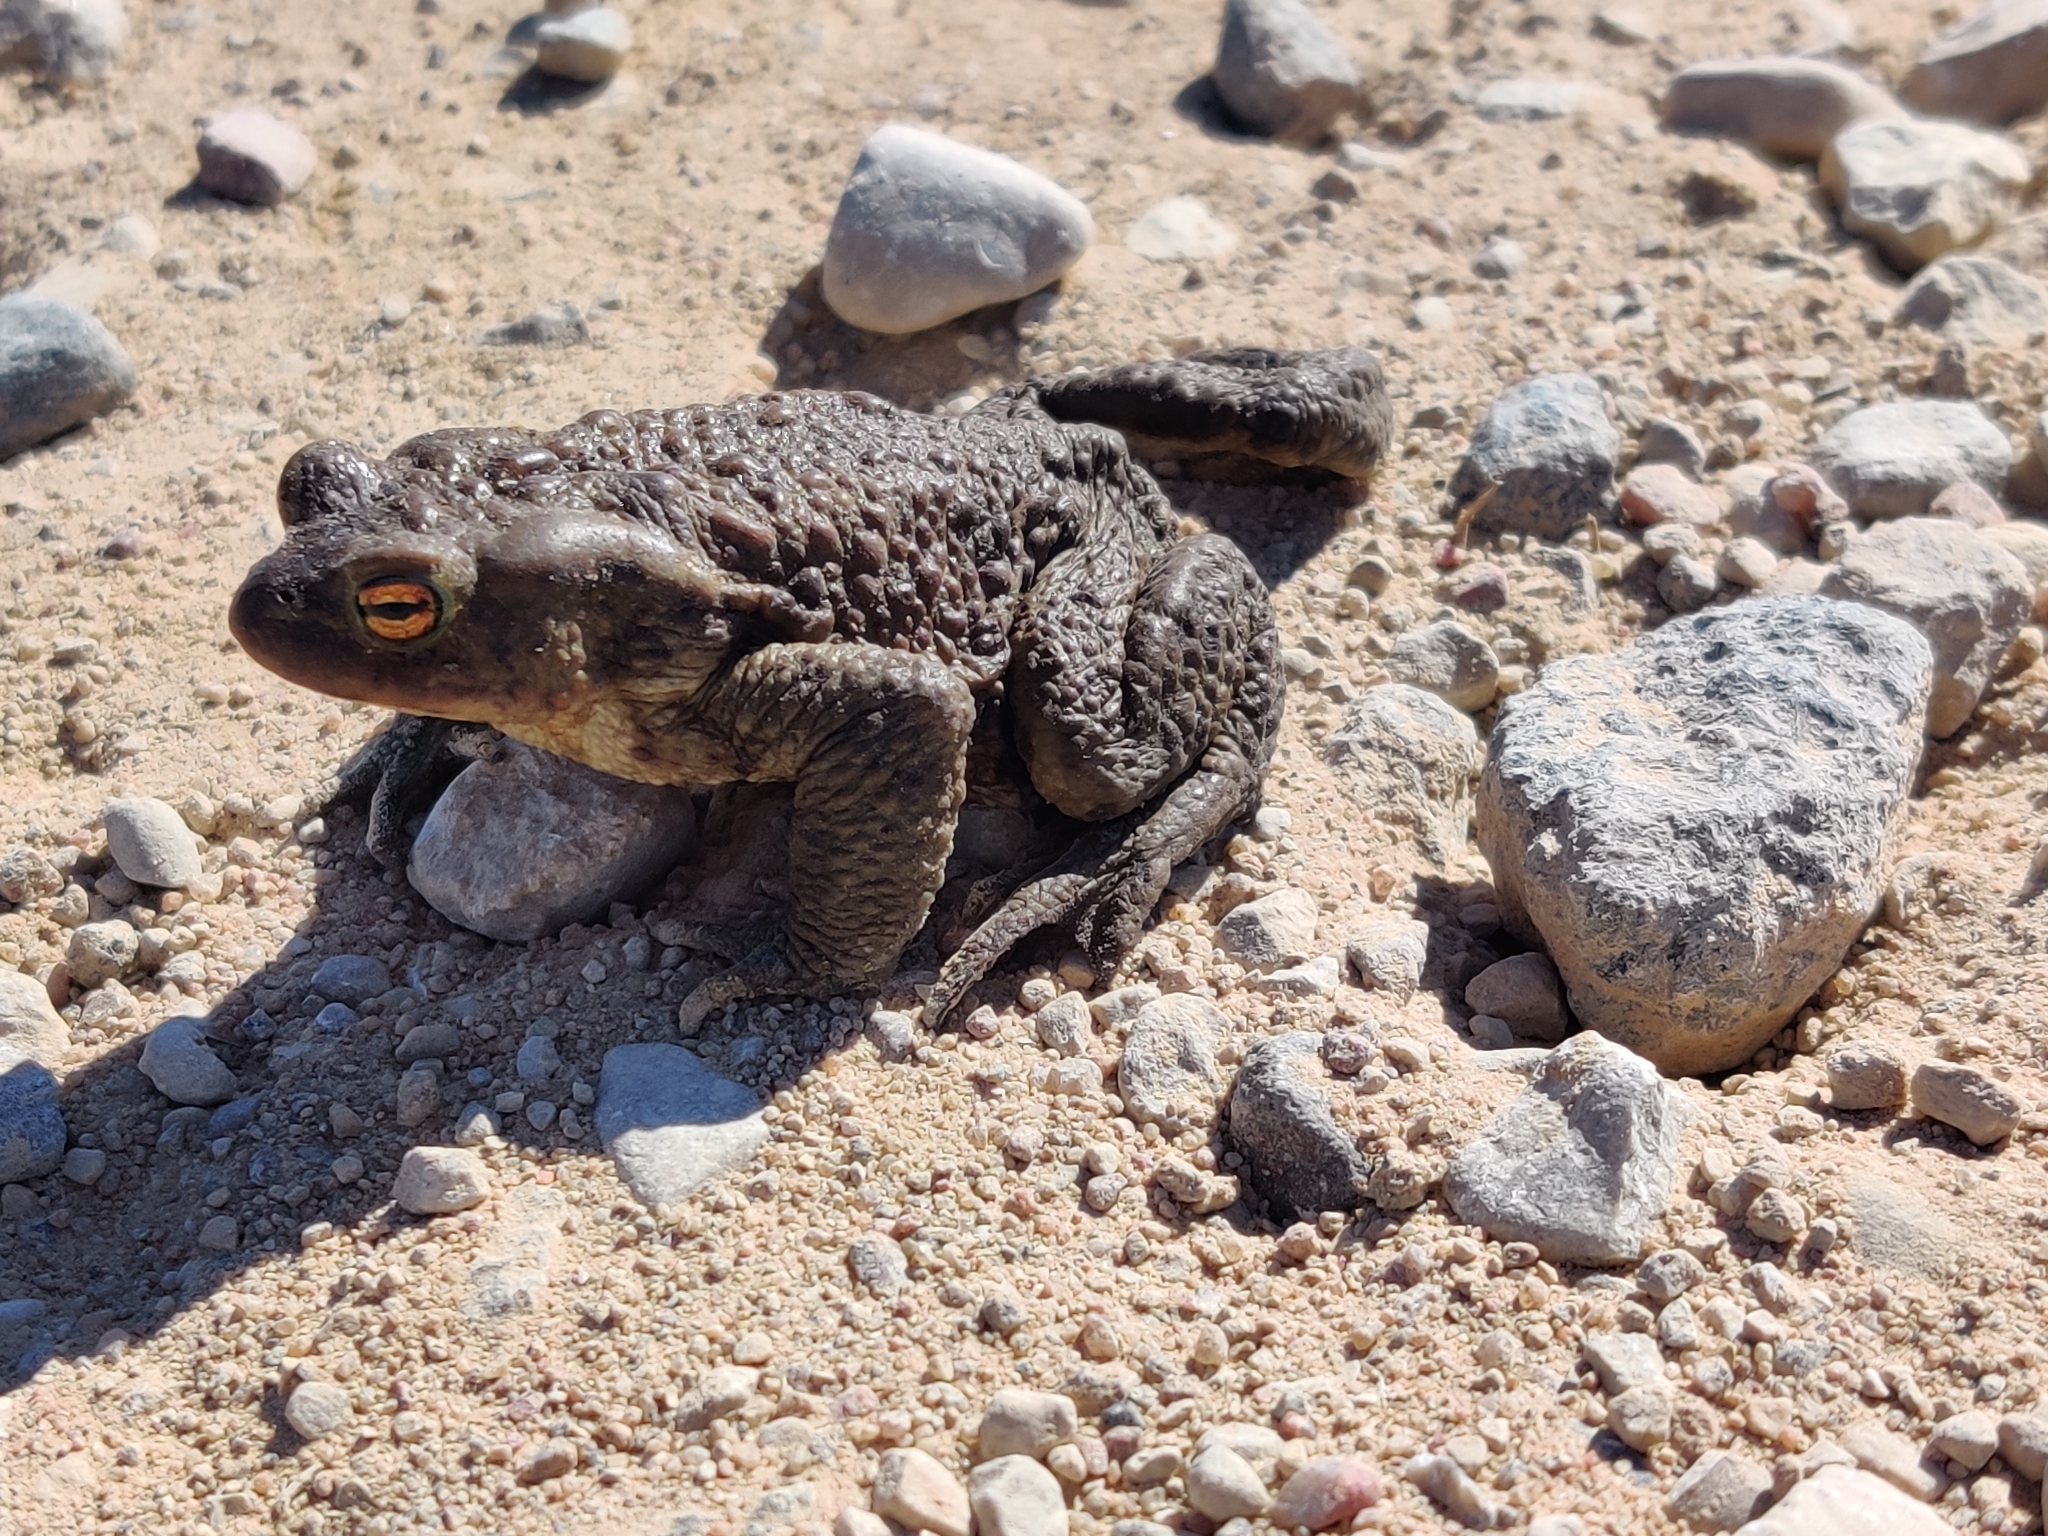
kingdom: Animalia
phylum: Chordata
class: Amphibia
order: Anura
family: Bufonidae
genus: Bufo
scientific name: Bufo bufo
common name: Common toad
